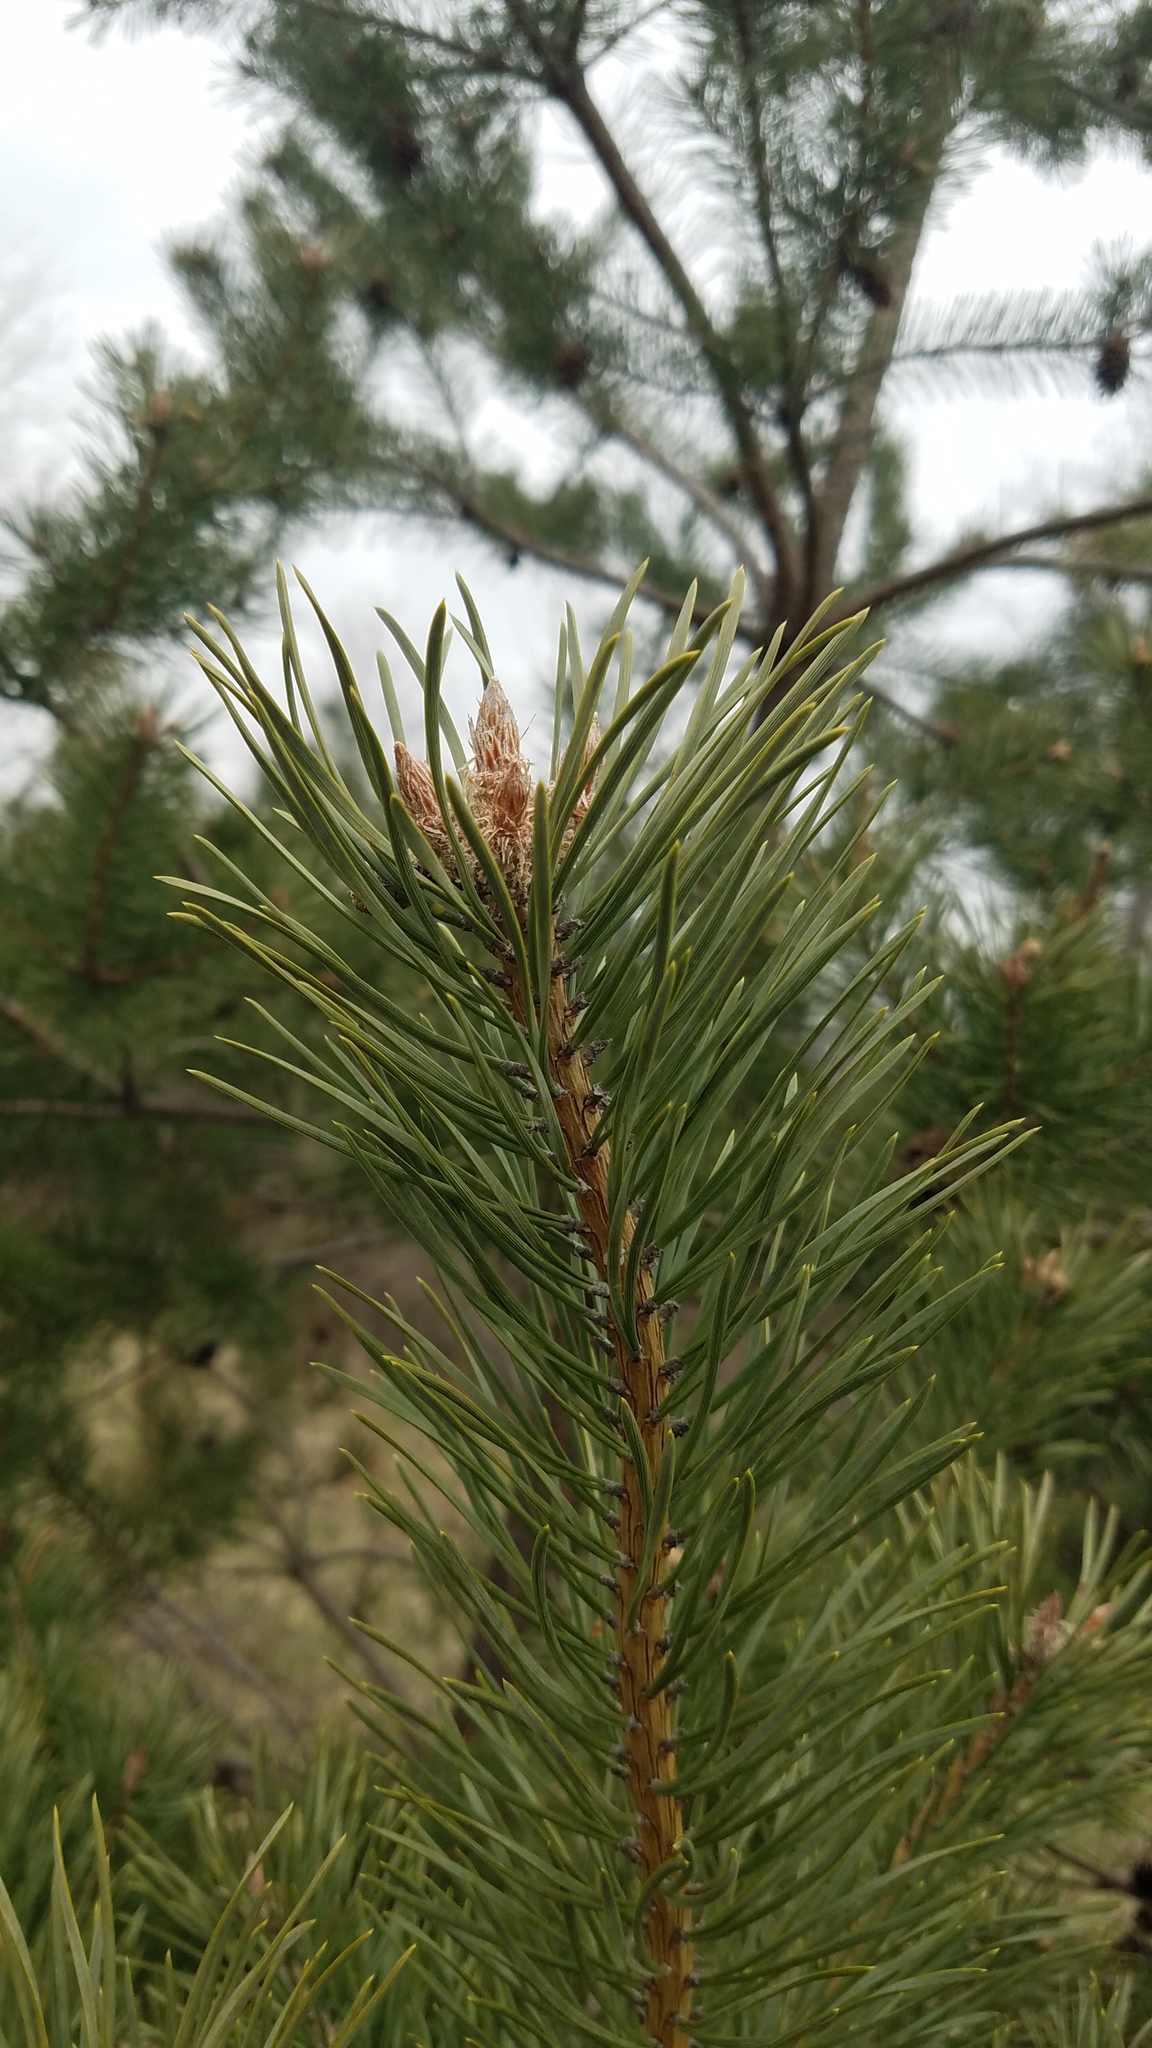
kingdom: Plantae
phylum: Tracheophyta
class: Pinopsida
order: Pinales
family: Pinaceae
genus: Pinus
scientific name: Pinus sylvestris
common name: Scots pine
